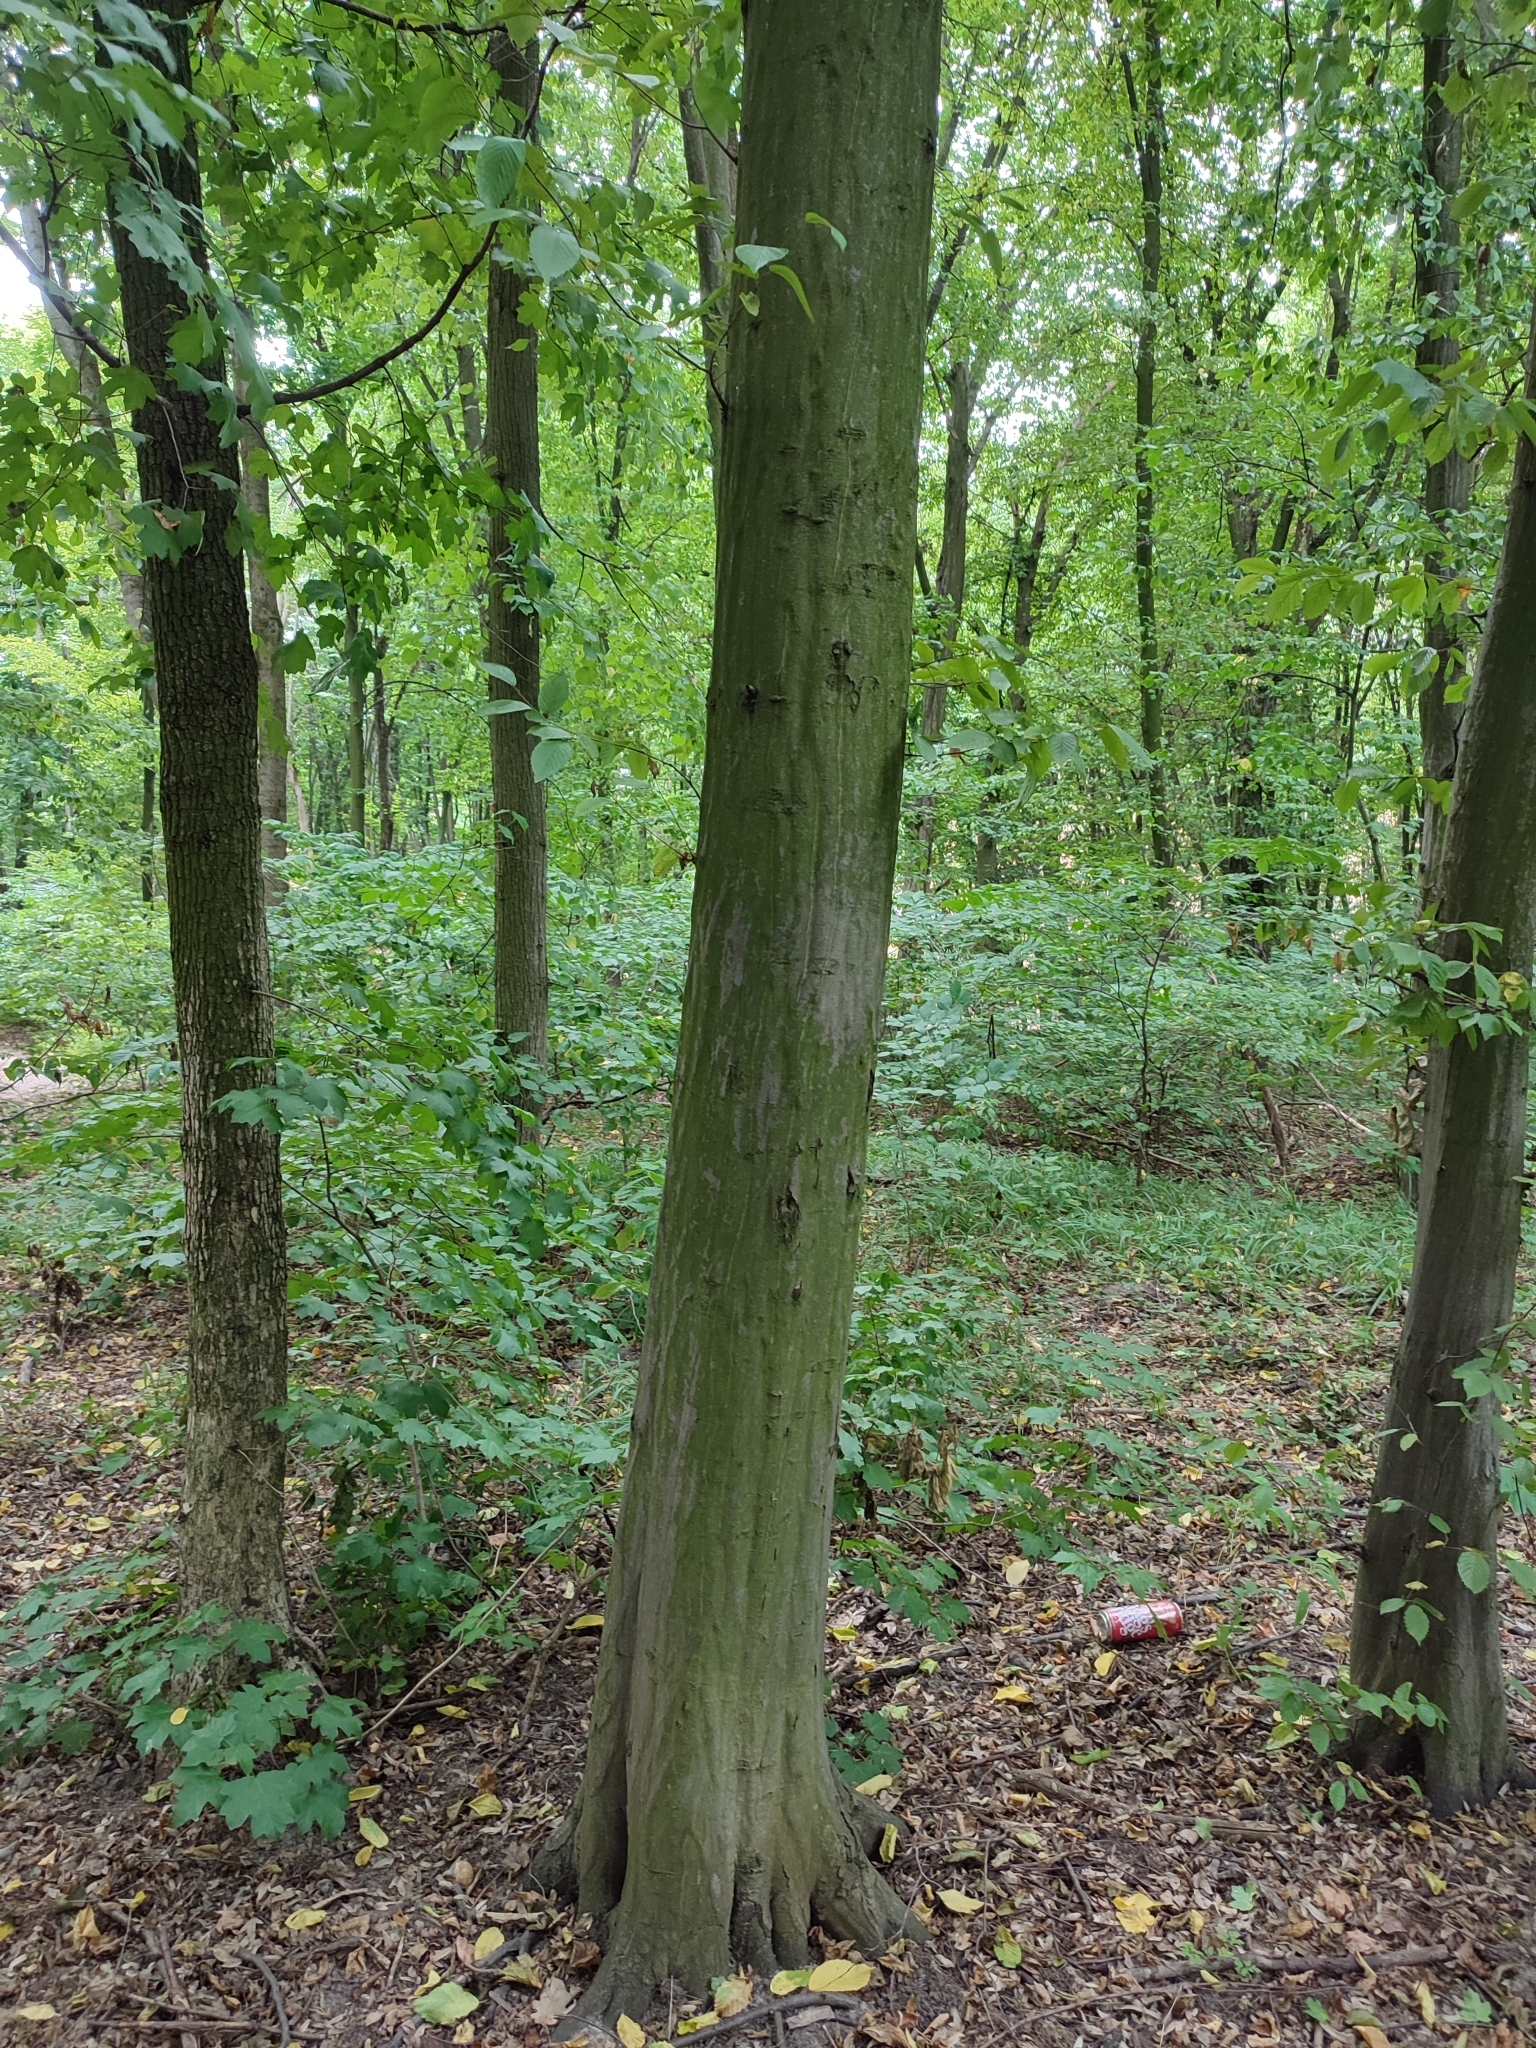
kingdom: Plantae
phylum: Tracheophyta
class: Magnoliopsida
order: Fagales
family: Betulaceae
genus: Carpinus
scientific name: Carpinus betulus
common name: Hornbeam
